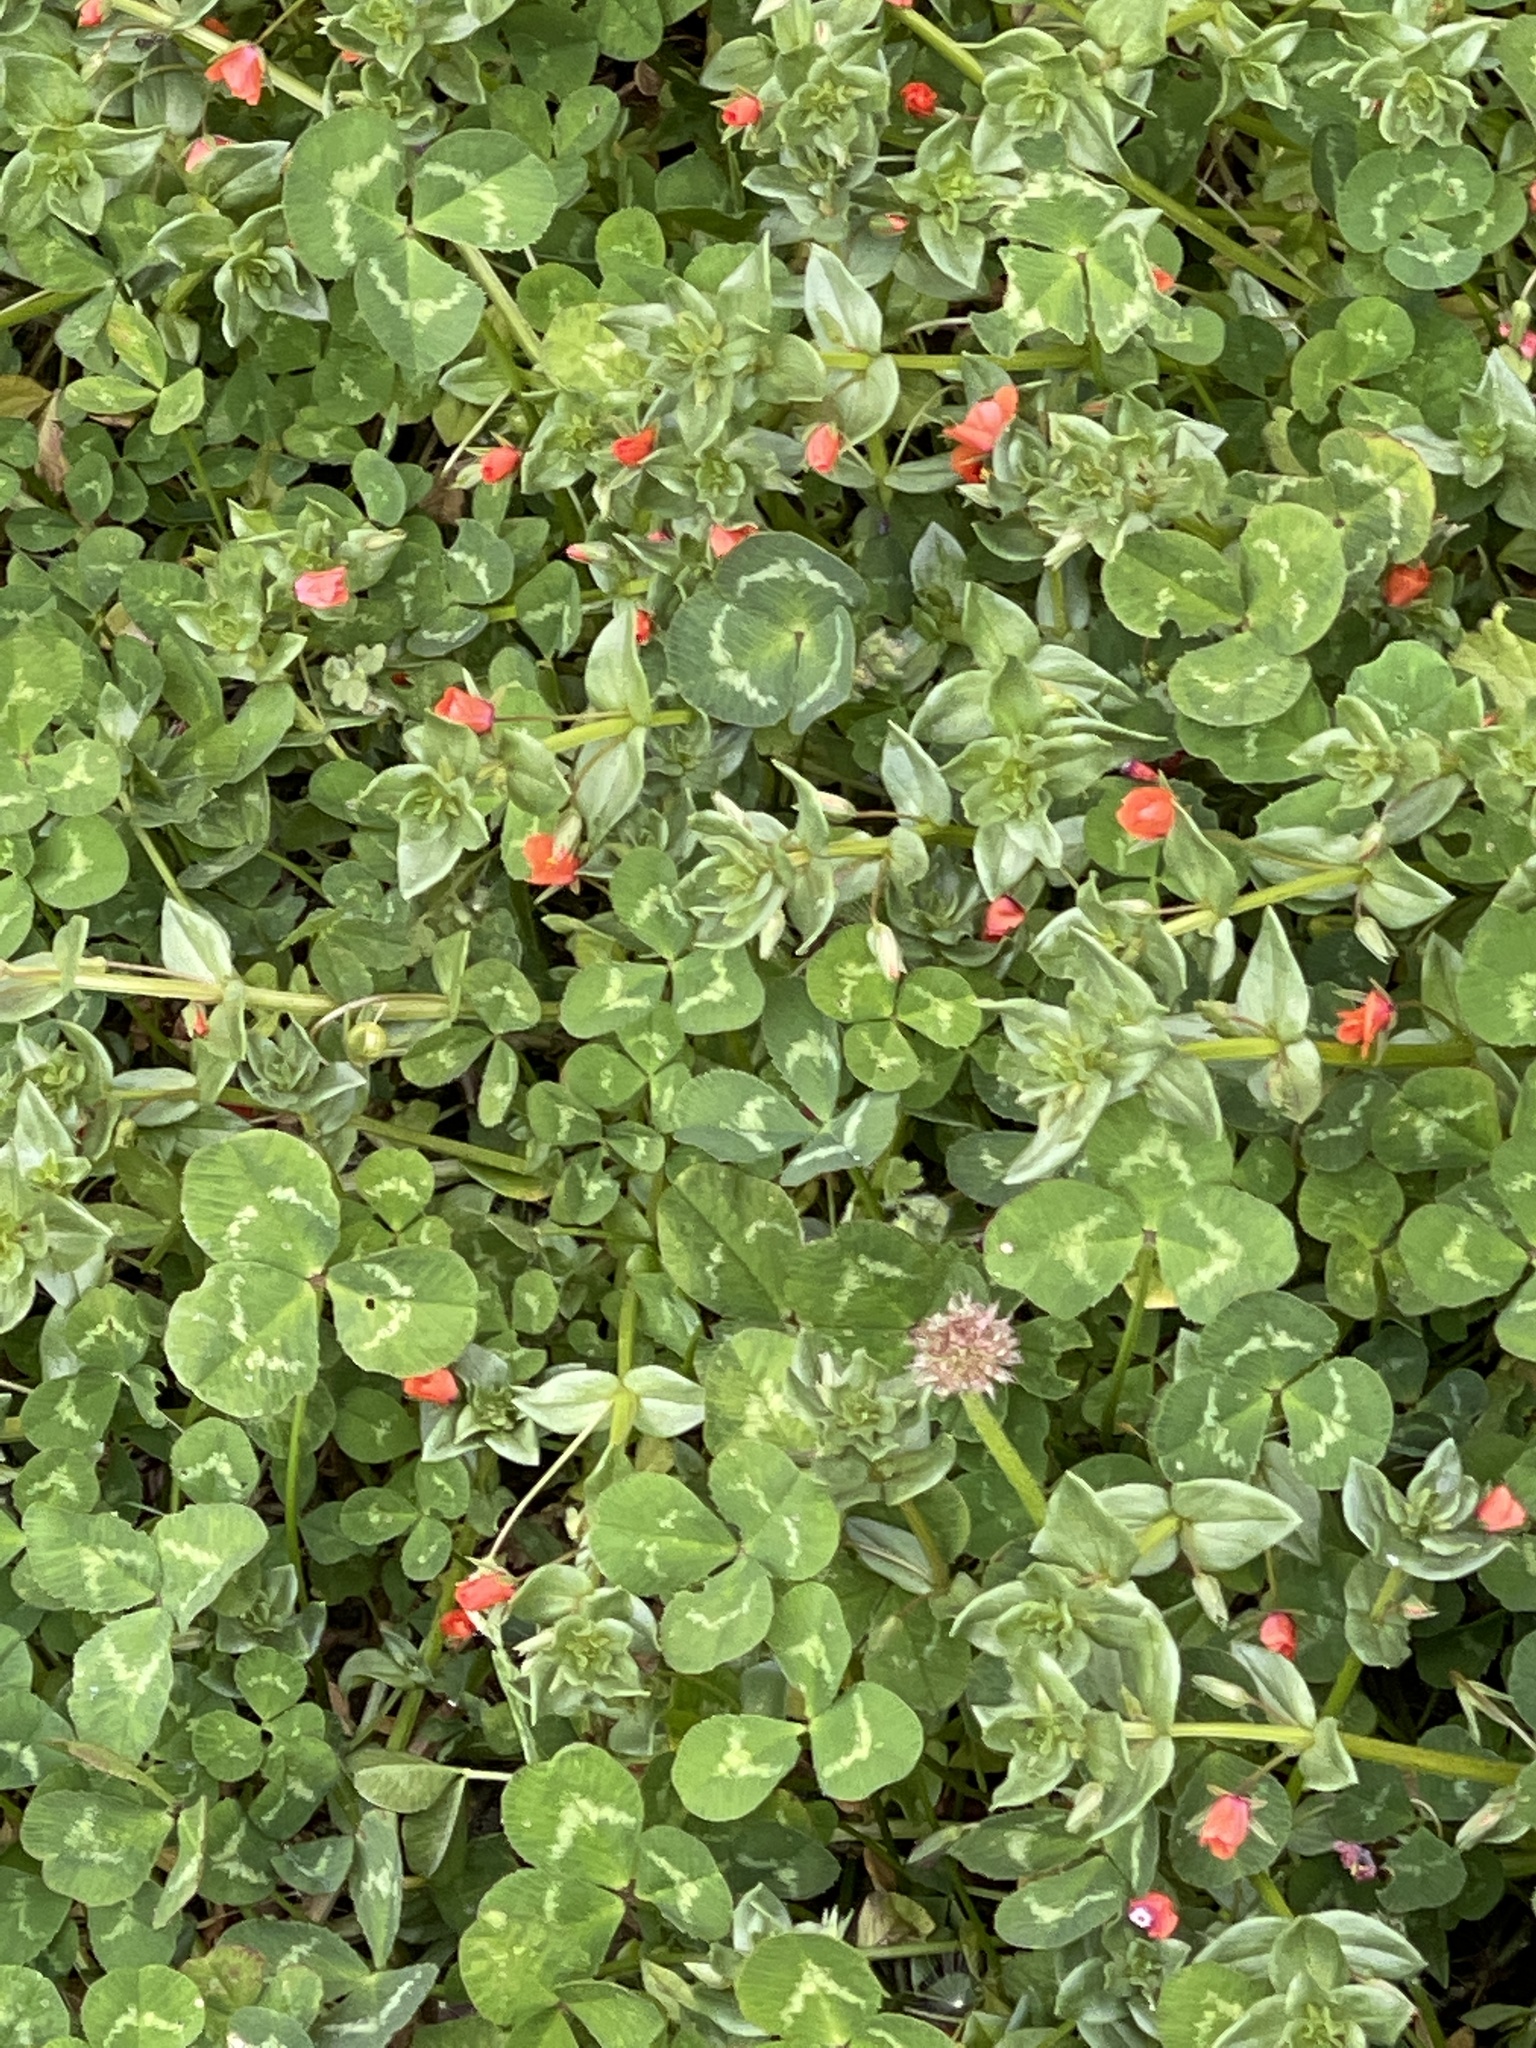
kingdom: Plantae
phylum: Tracheophyta
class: Magnoliopsida
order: Ericales
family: Primulaceae
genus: Lysimachia
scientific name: Lysimachia arvensis
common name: Scarlet pimpernel
